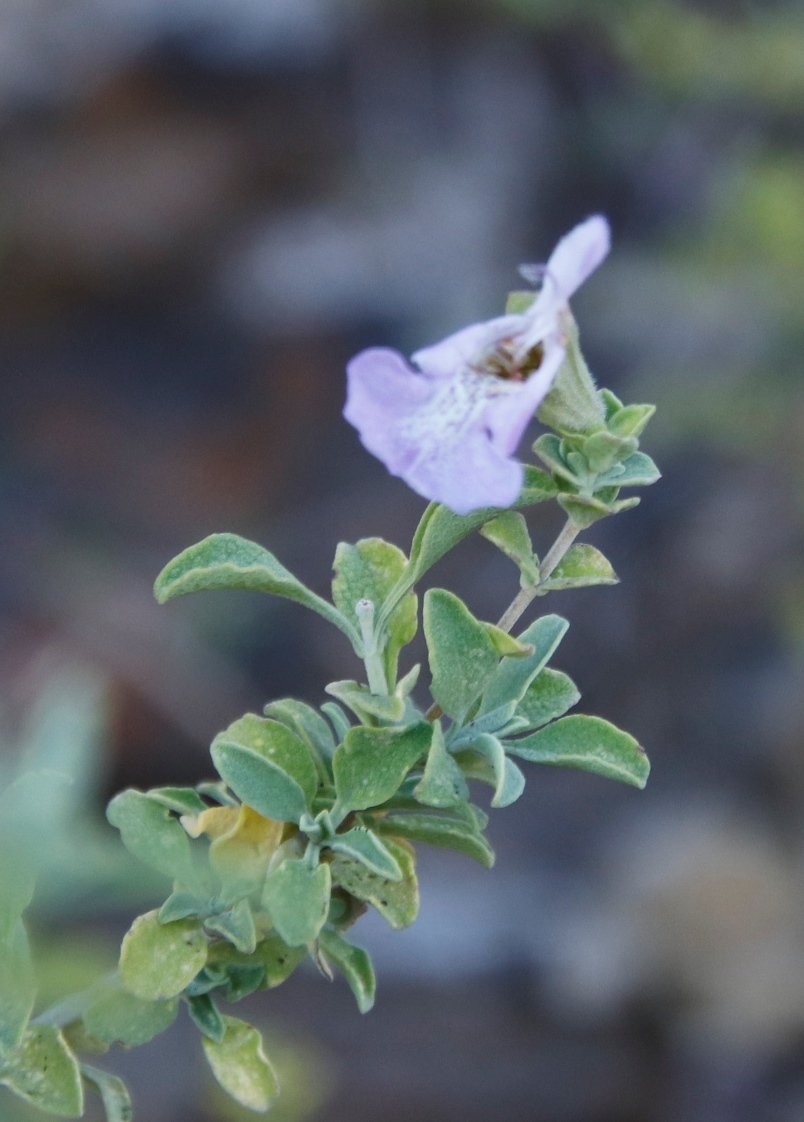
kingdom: Plantae
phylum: Tracheophyta
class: Magnoliopsida
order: Lamiales
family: Lamiaceae
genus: Salvia
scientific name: Salvia dentata
